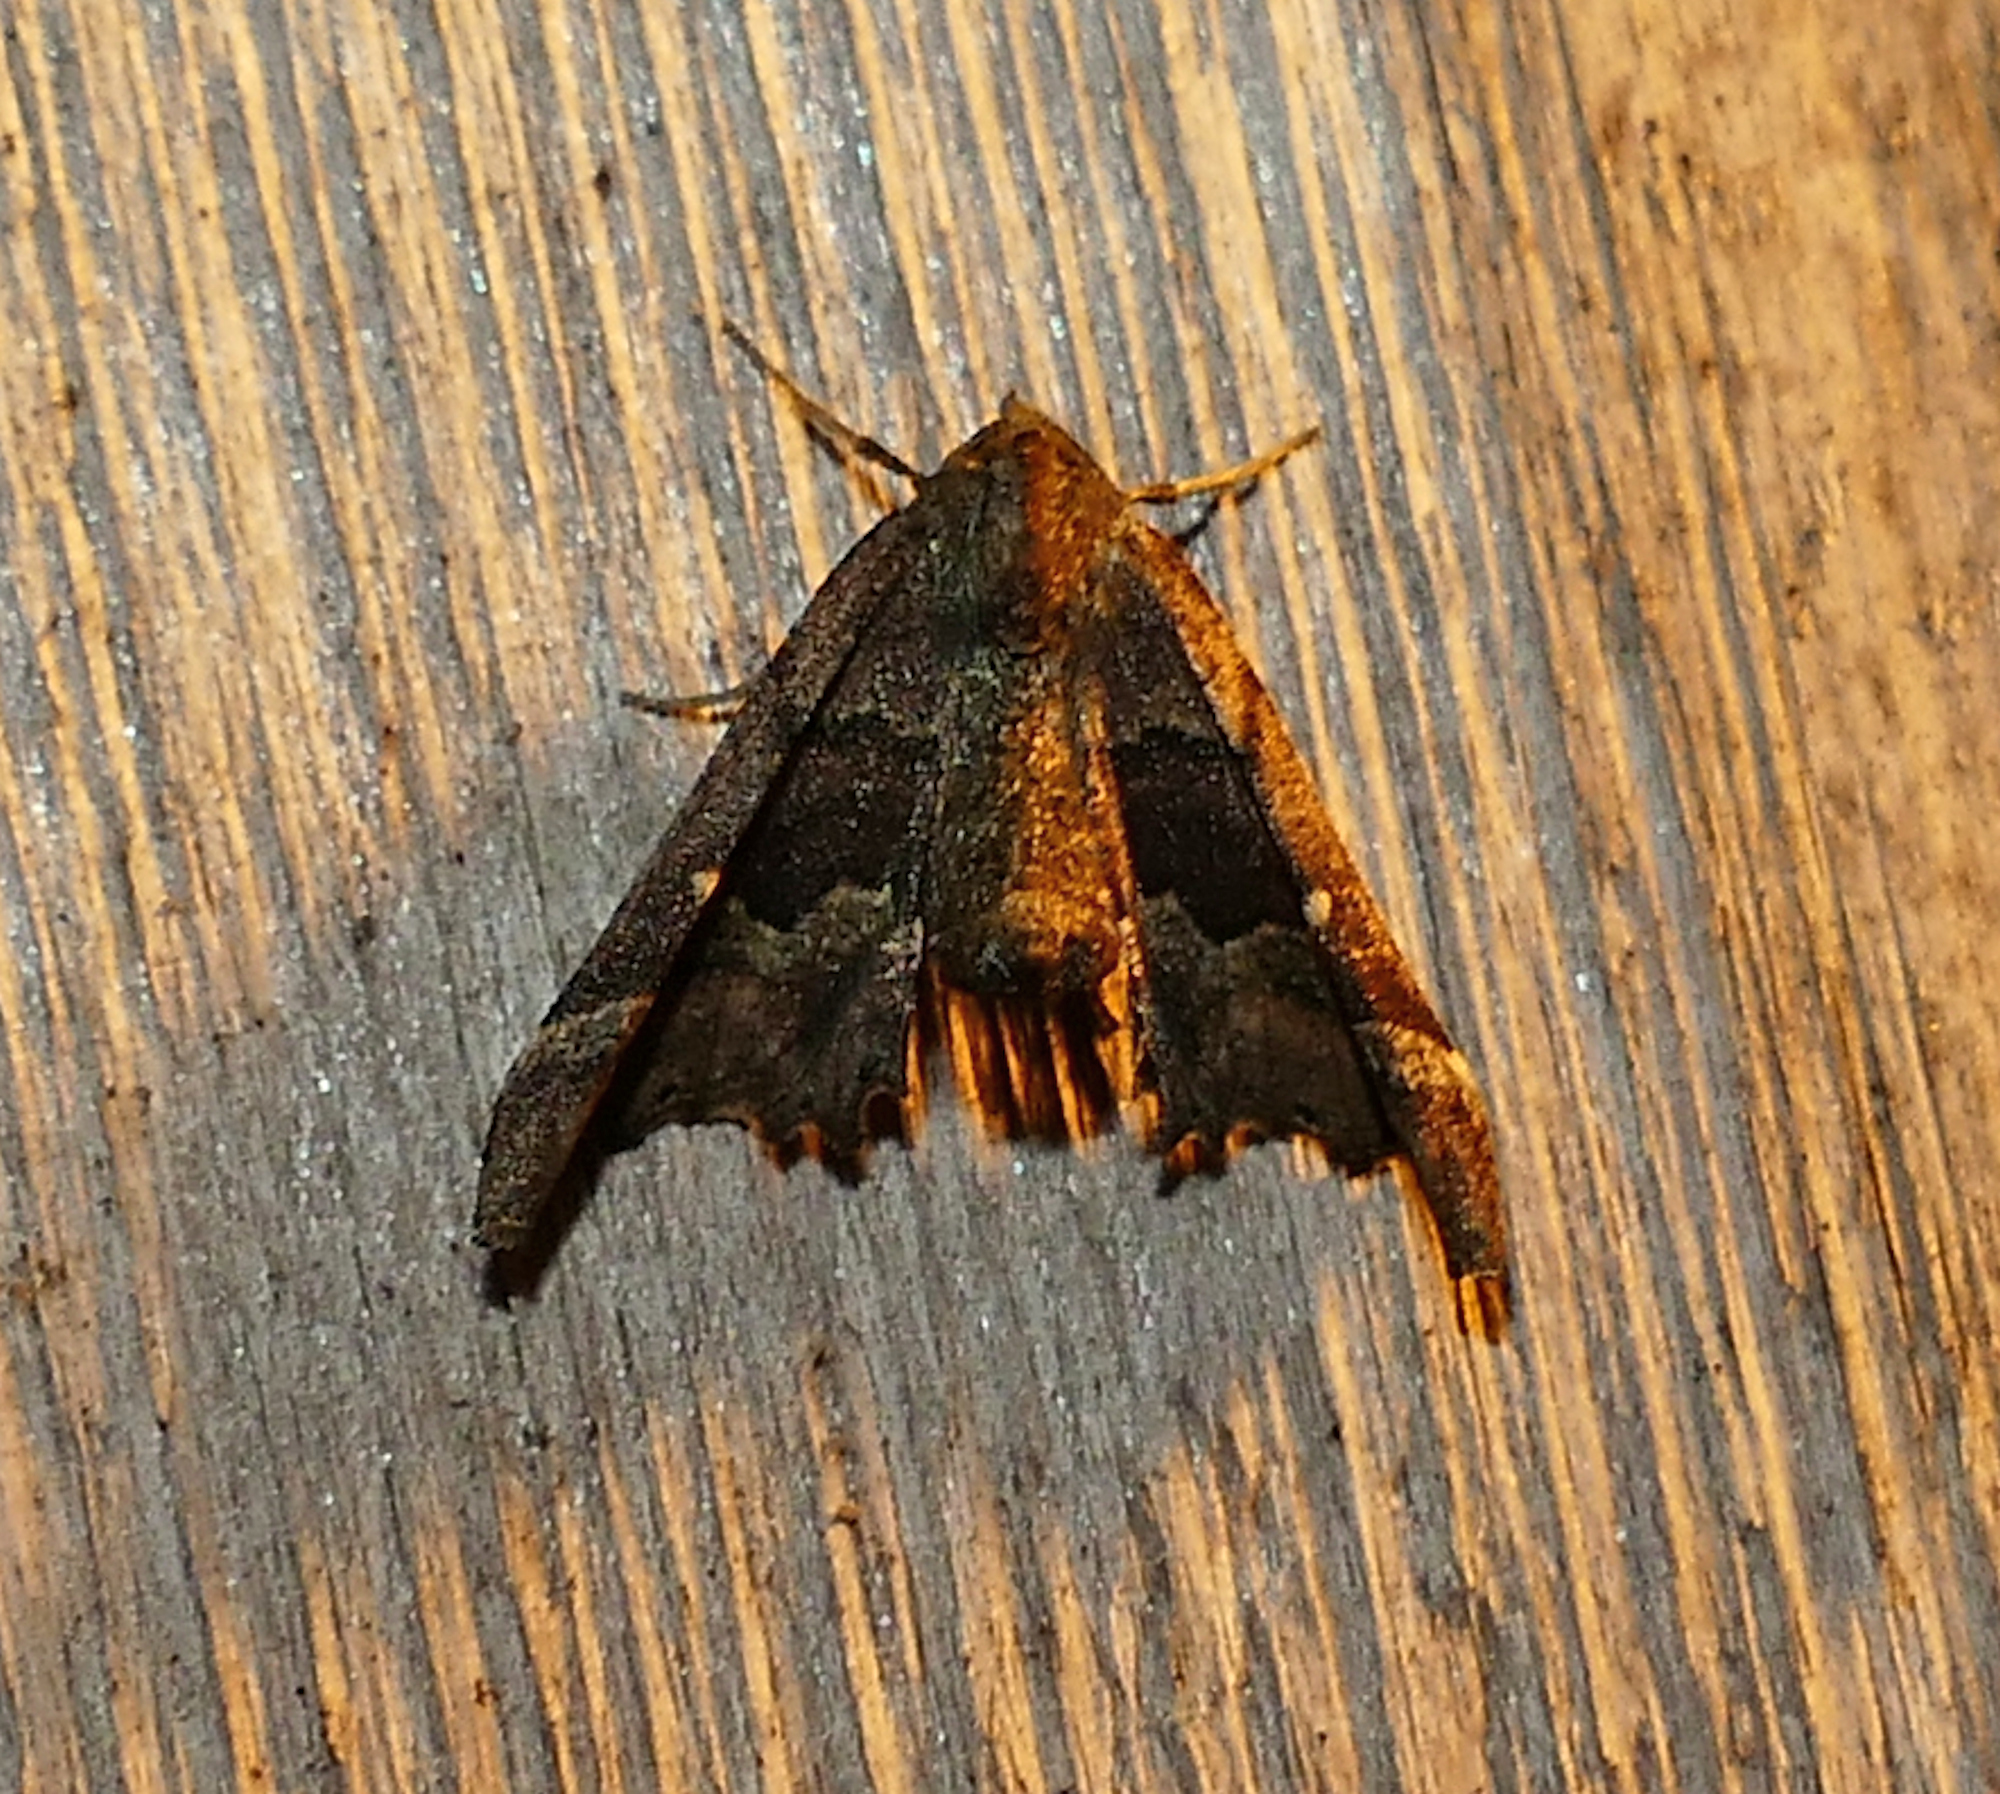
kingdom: Animalia
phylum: Arthropoda
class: Insecta
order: Lepidoptera
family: Geometridae
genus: Pero
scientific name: Pero meskaria
